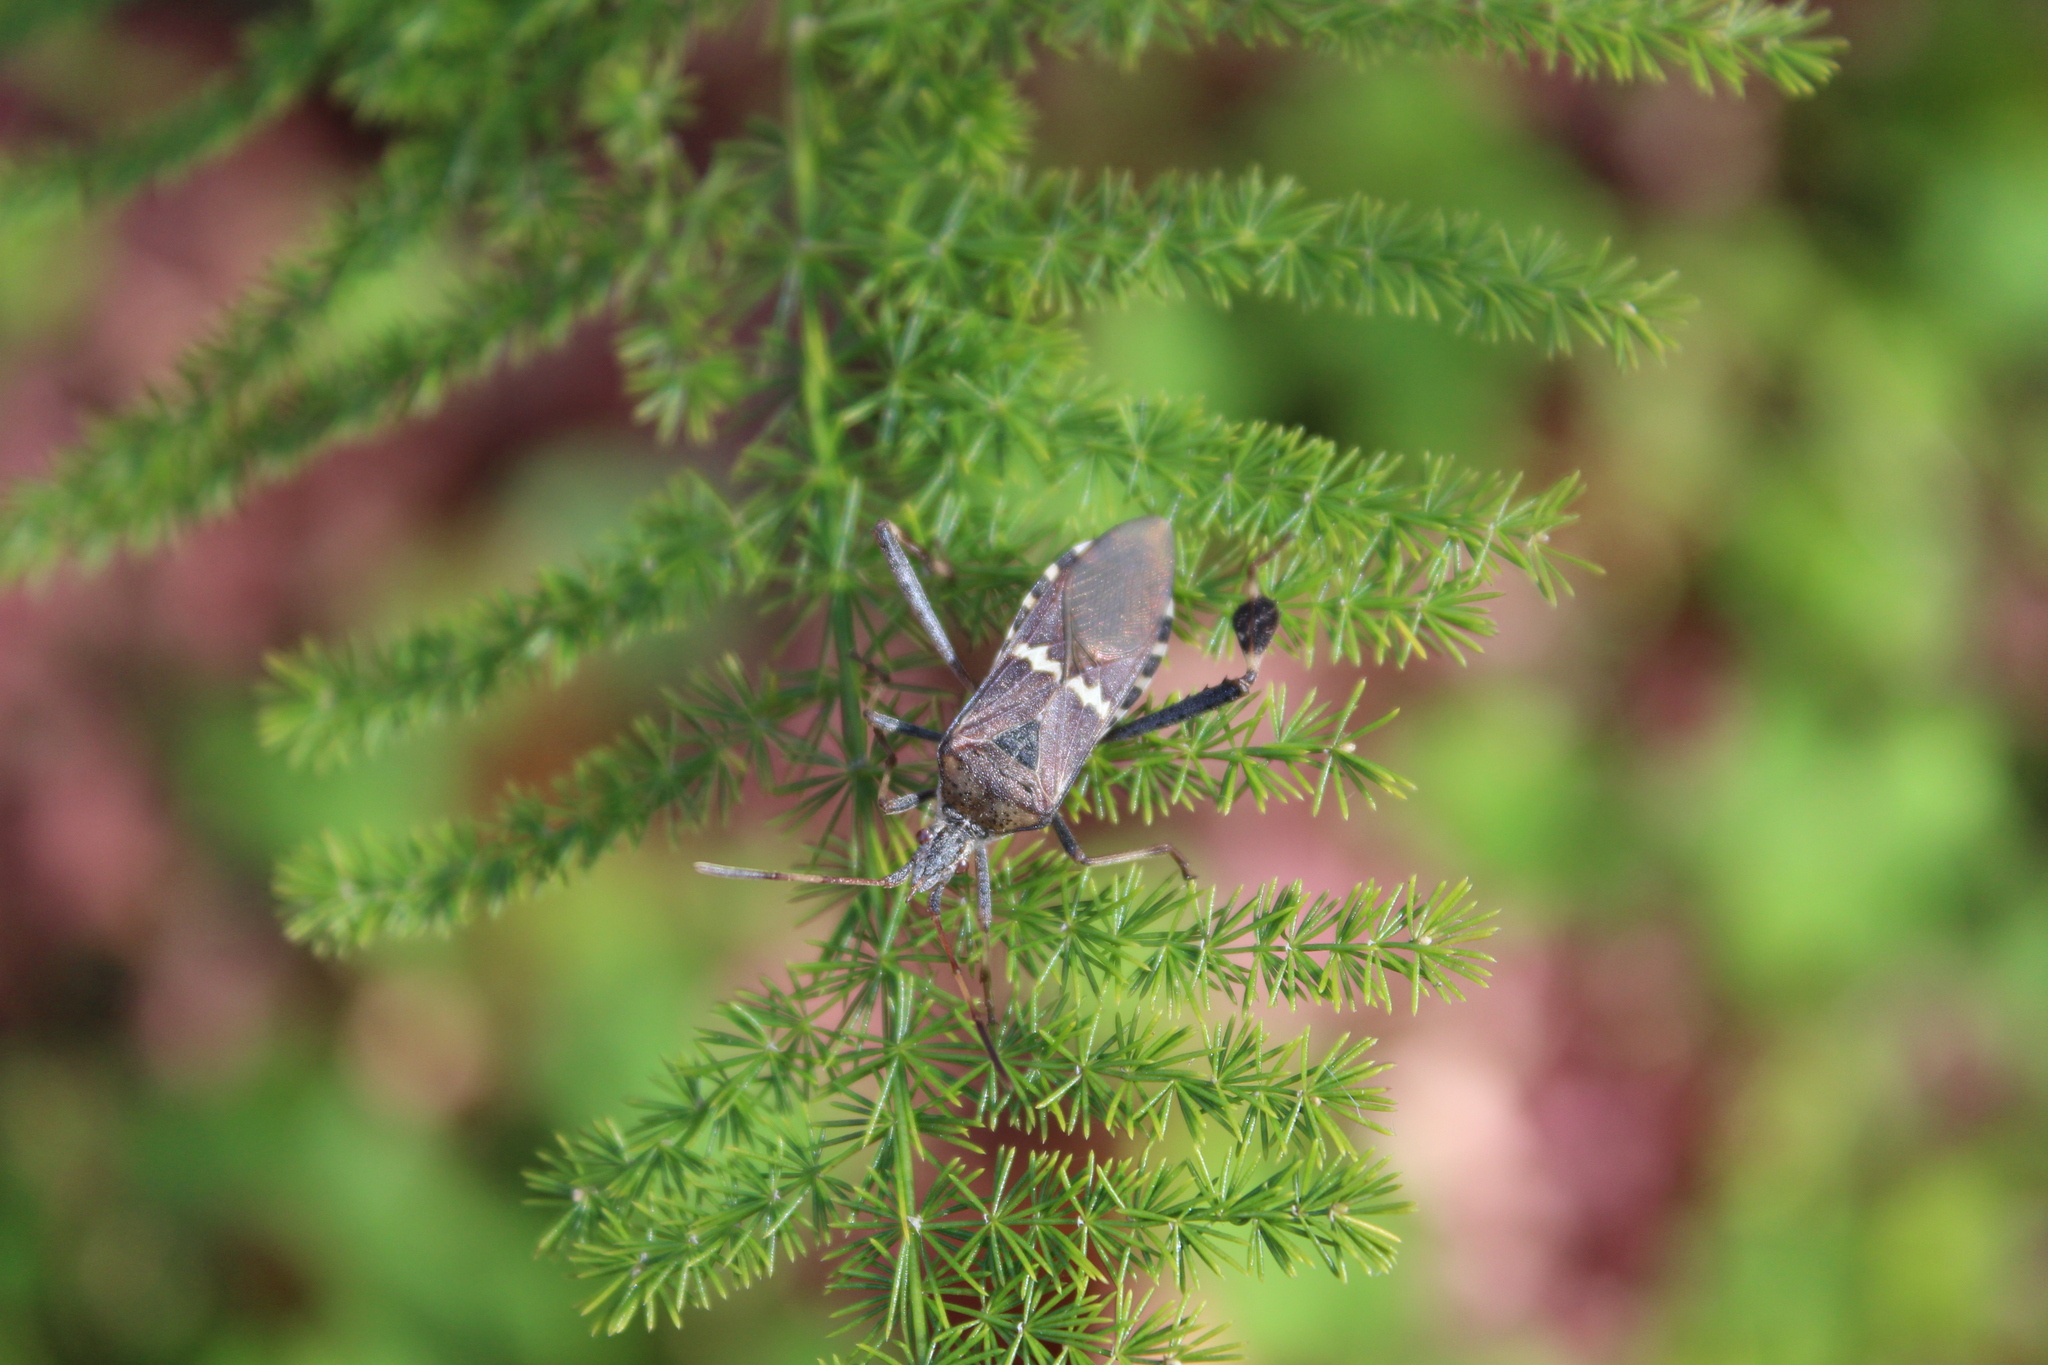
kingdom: Animalia
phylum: Arthropoda
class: Insecta
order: Hemiptera
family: Coreidae
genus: Leptoglossus
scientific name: Leptoglossus clypealis
